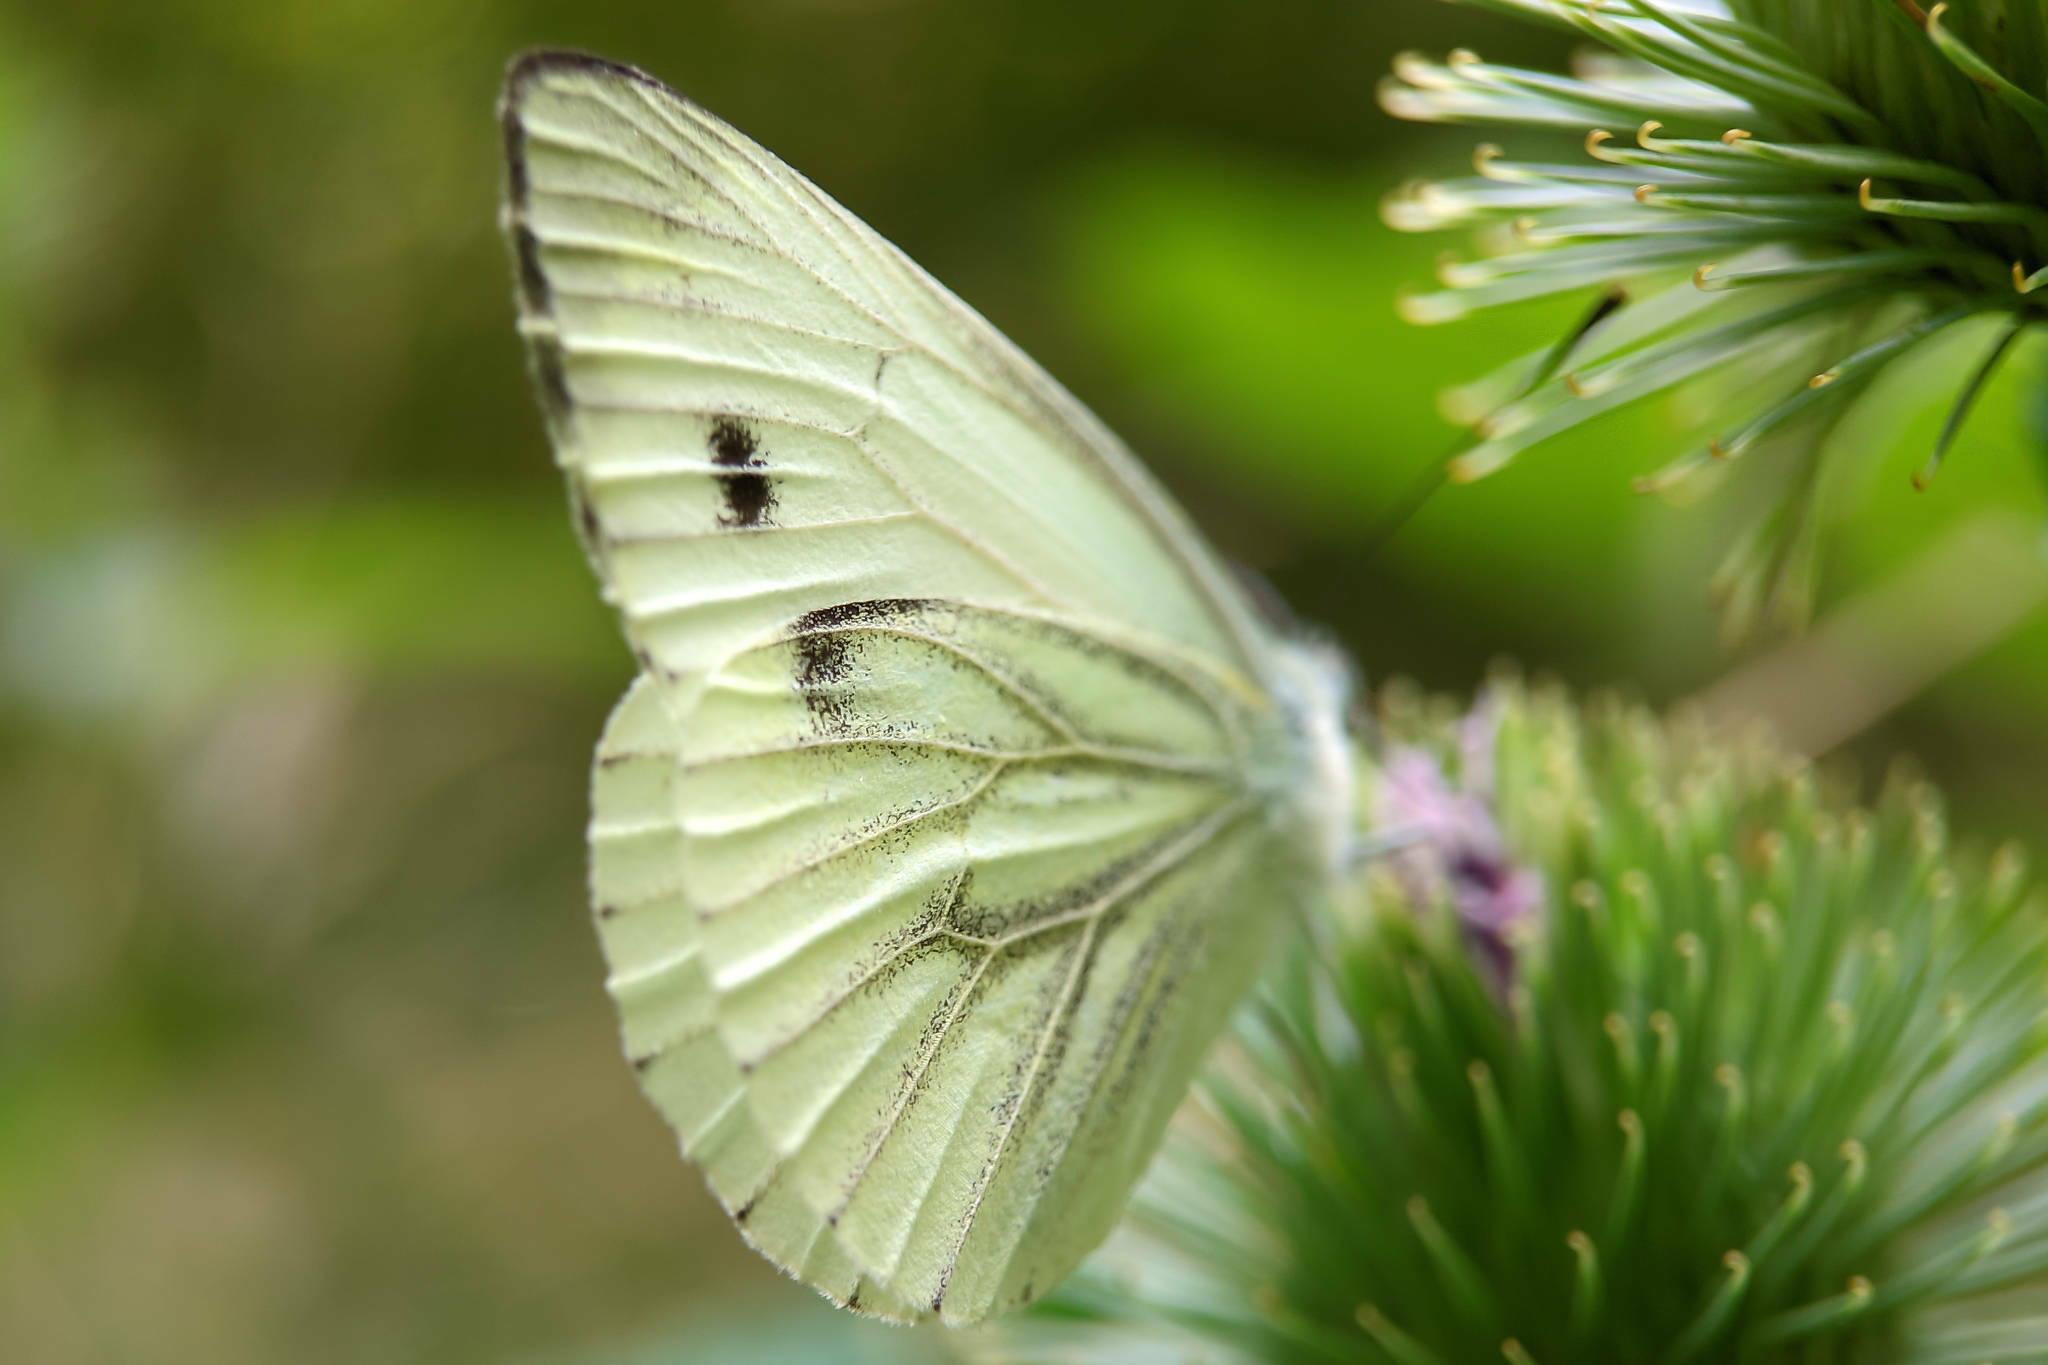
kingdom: Animalia
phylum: Arthropoda
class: Insecta
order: Lepidoptera
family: Pieridae
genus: Pieris
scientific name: Pieris napi
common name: Green-veined white
